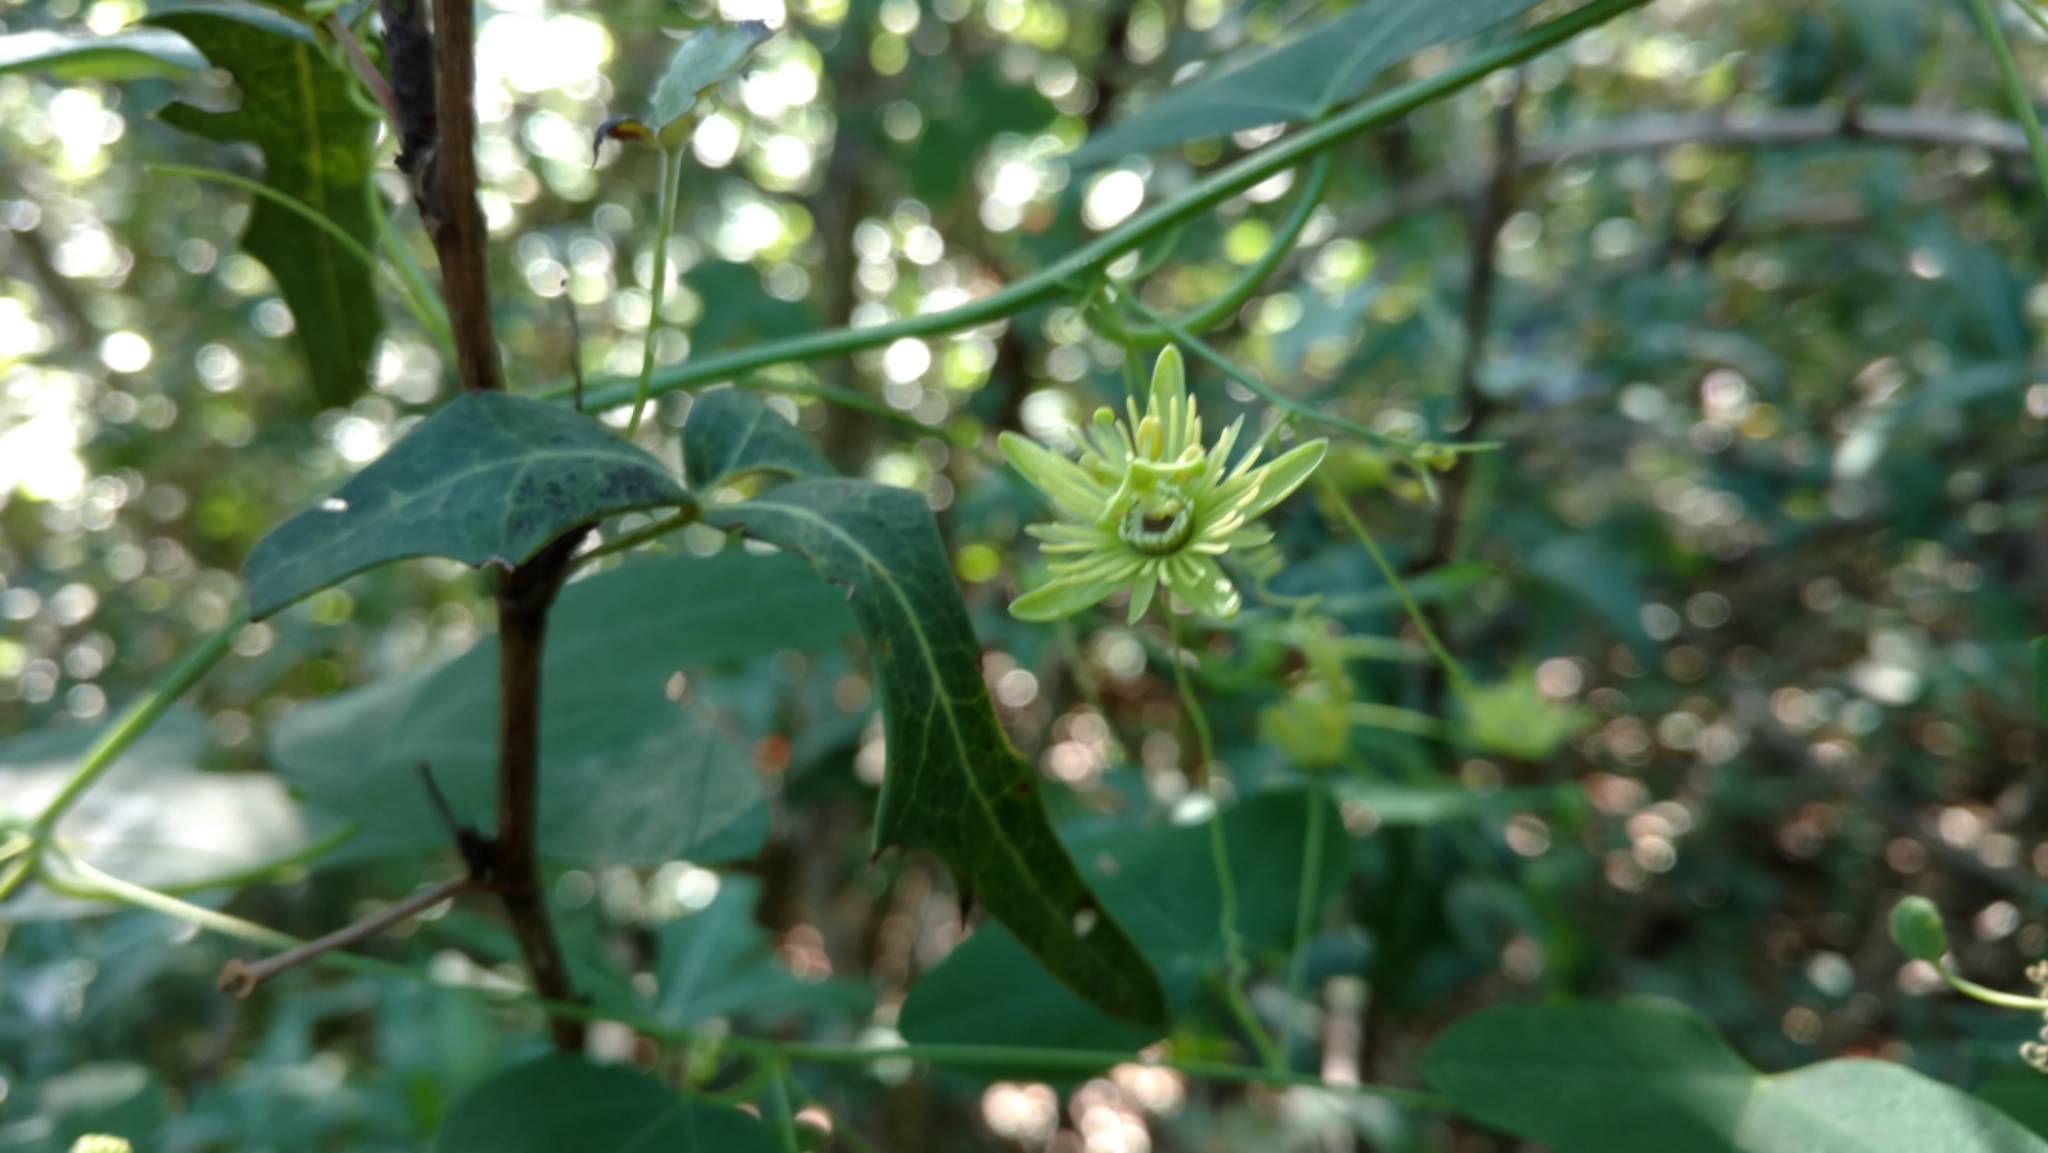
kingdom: Plantae
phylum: Tracheophyta
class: Magnoliopsida
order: Malpighiales
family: Passifloraceae
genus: Passiflora
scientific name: Passiflora lutea
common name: Yellow passionflower
